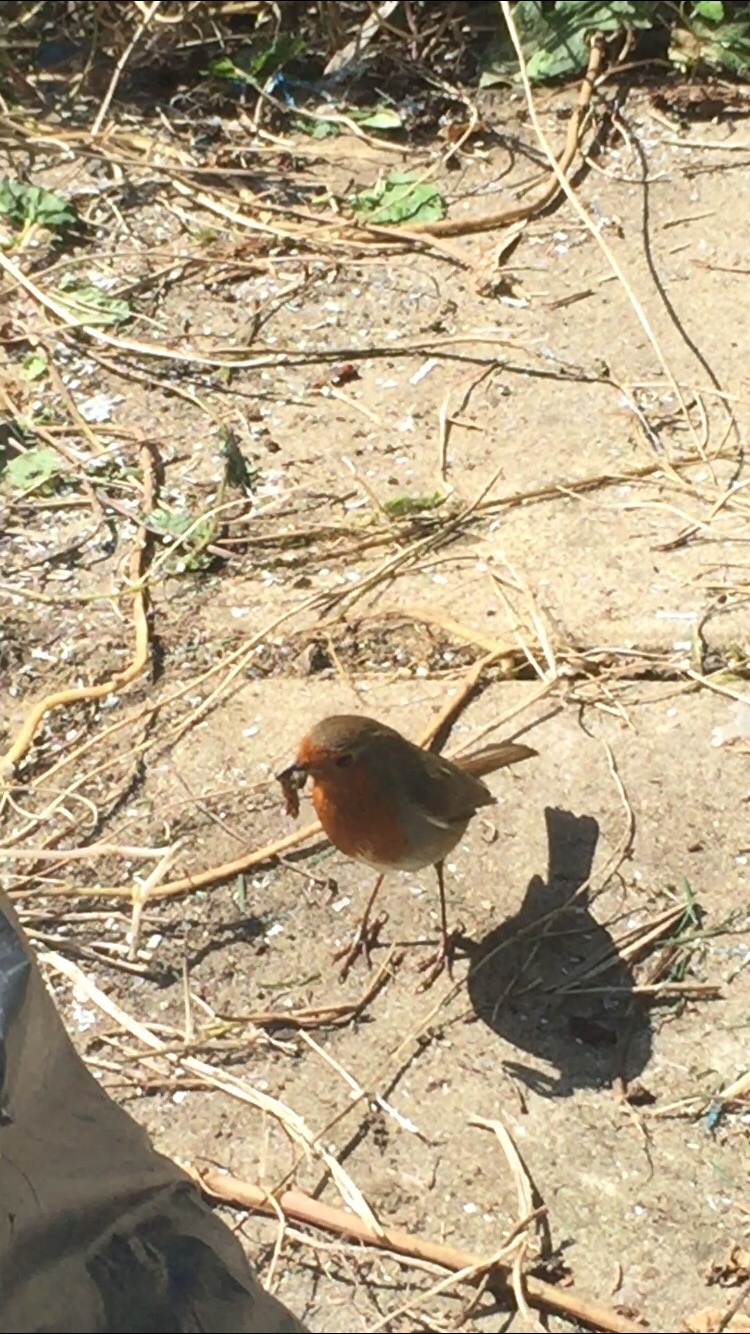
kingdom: Animalia
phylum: Chordata
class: Aves
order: Passeriformes
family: Muscicapidae
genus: Erithacus
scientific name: Erithacus rubecula
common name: European robin
